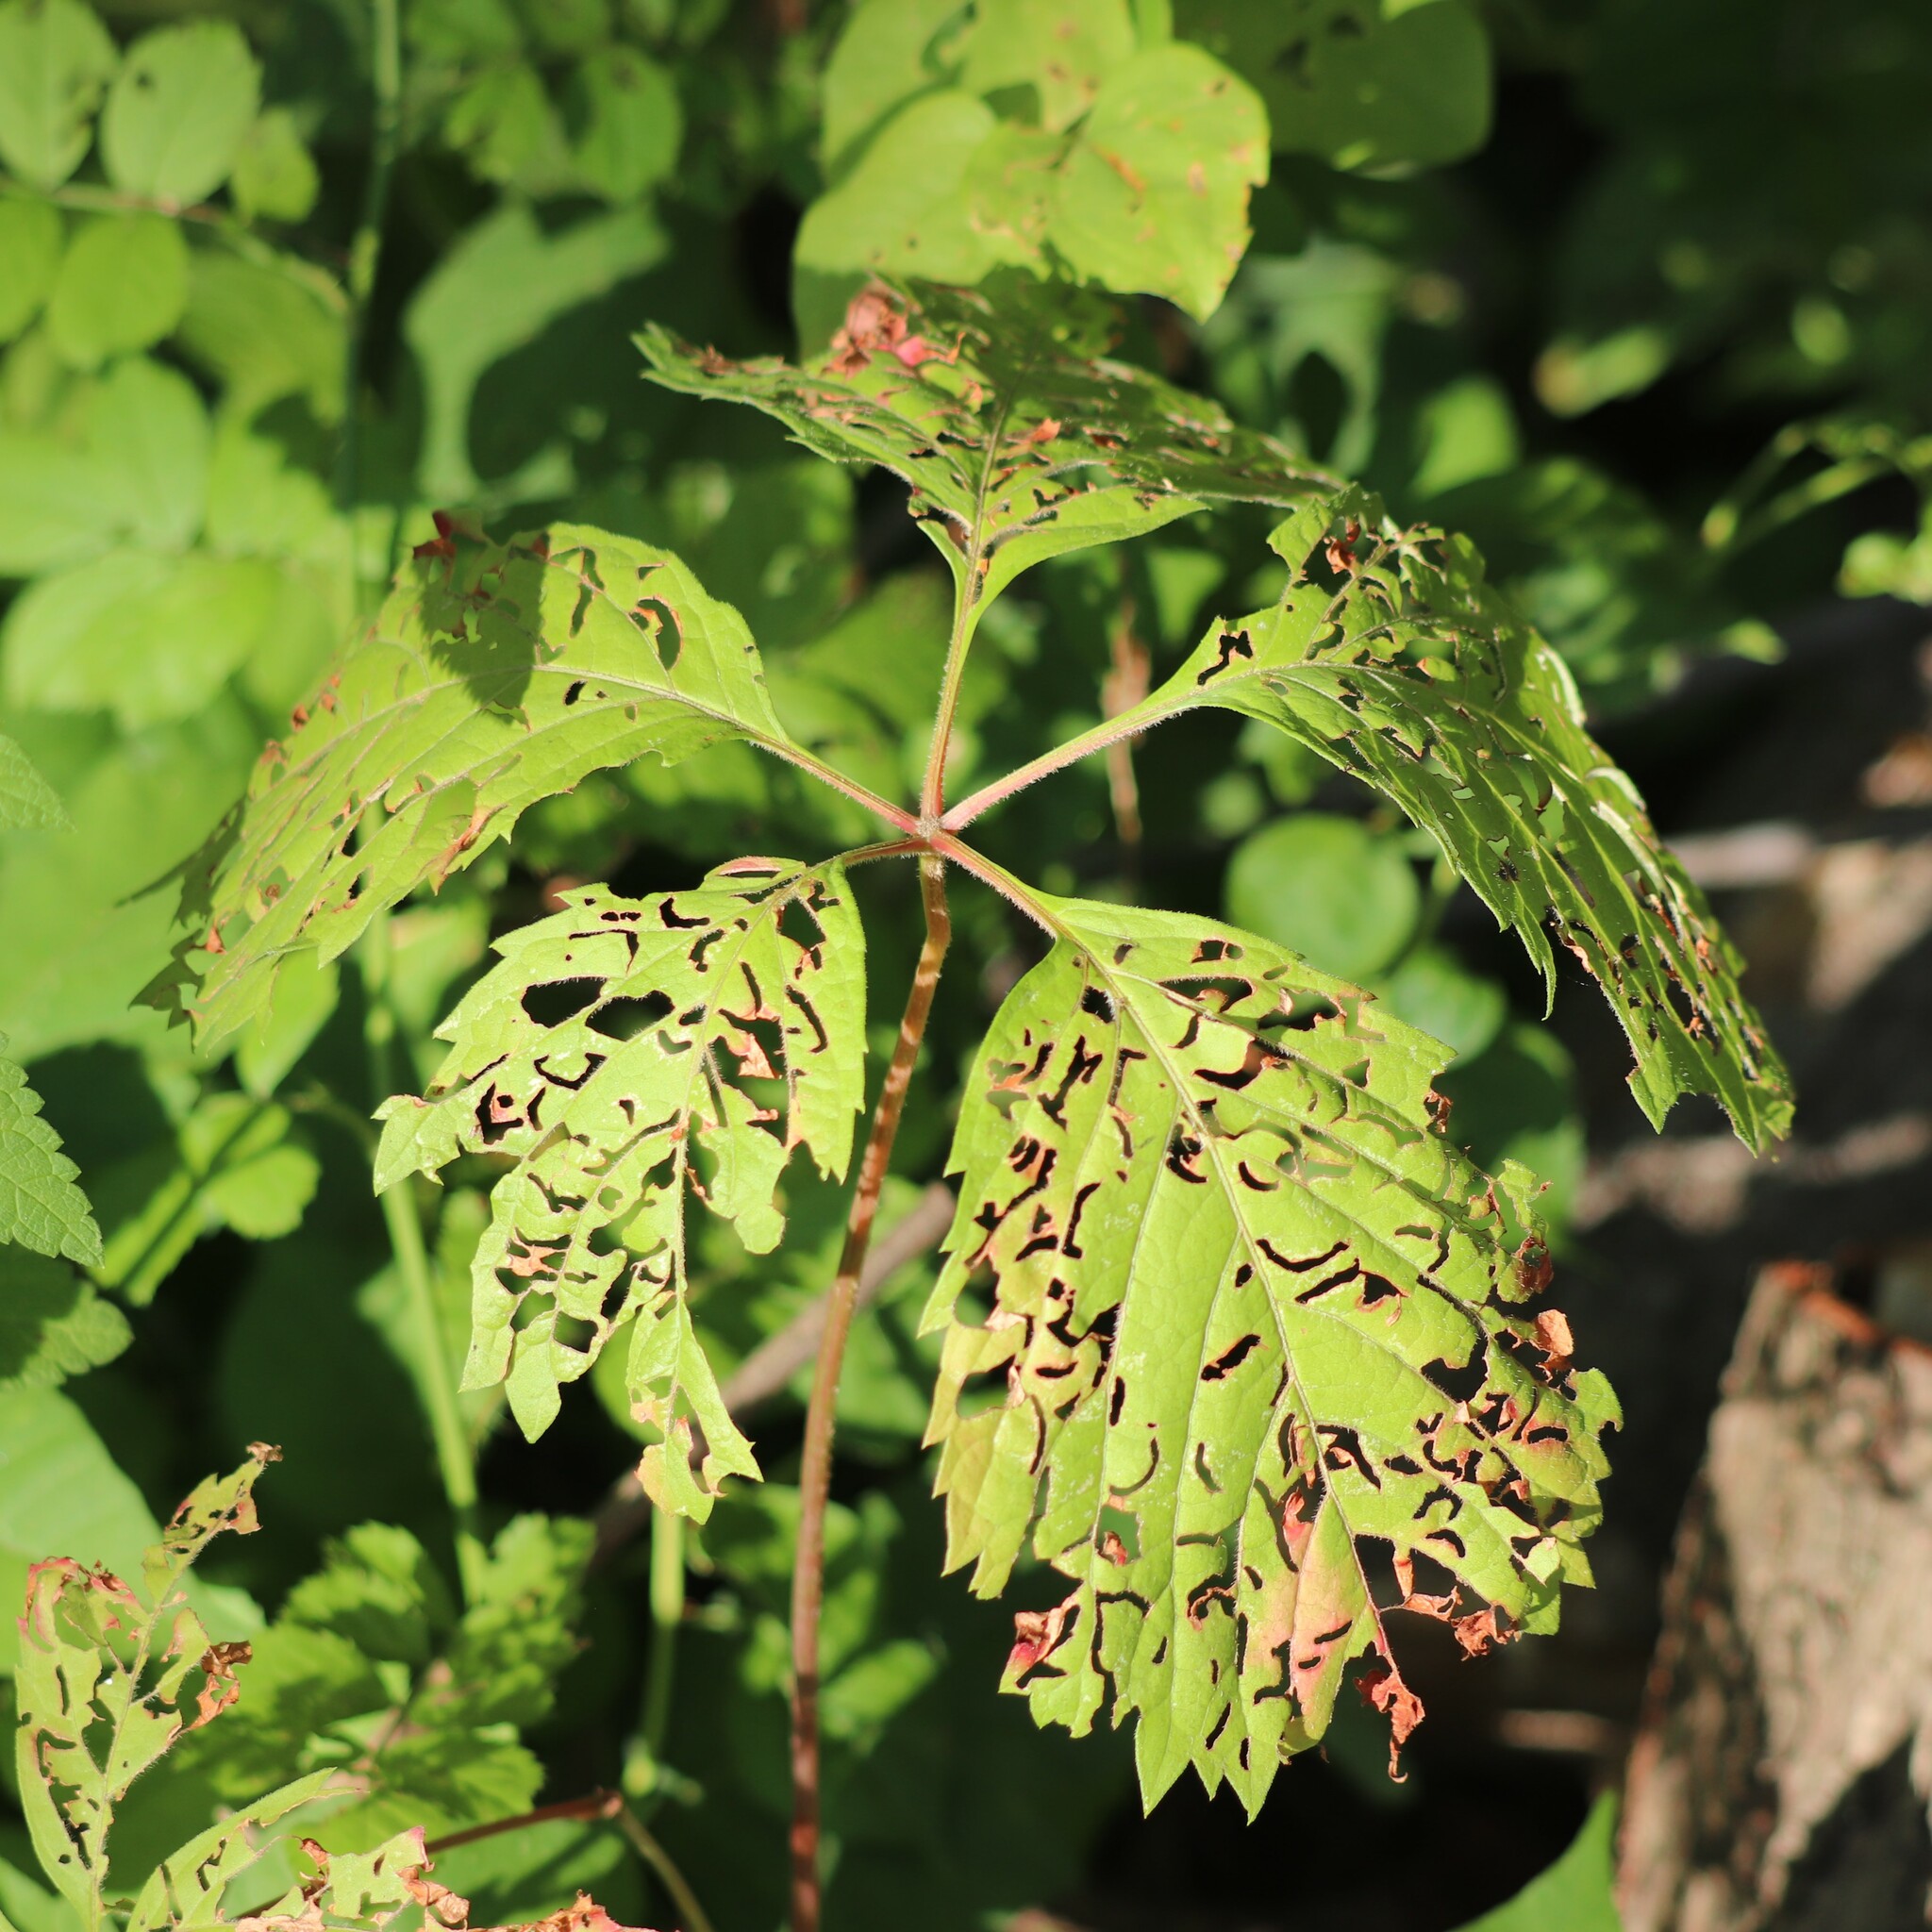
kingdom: Plantae
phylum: Tracheophyta
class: Magnoliopsida
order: Vitales
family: Vitaceae
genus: Parthenocissus
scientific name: Parthenocissus inserta
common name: False virginia-creeper
